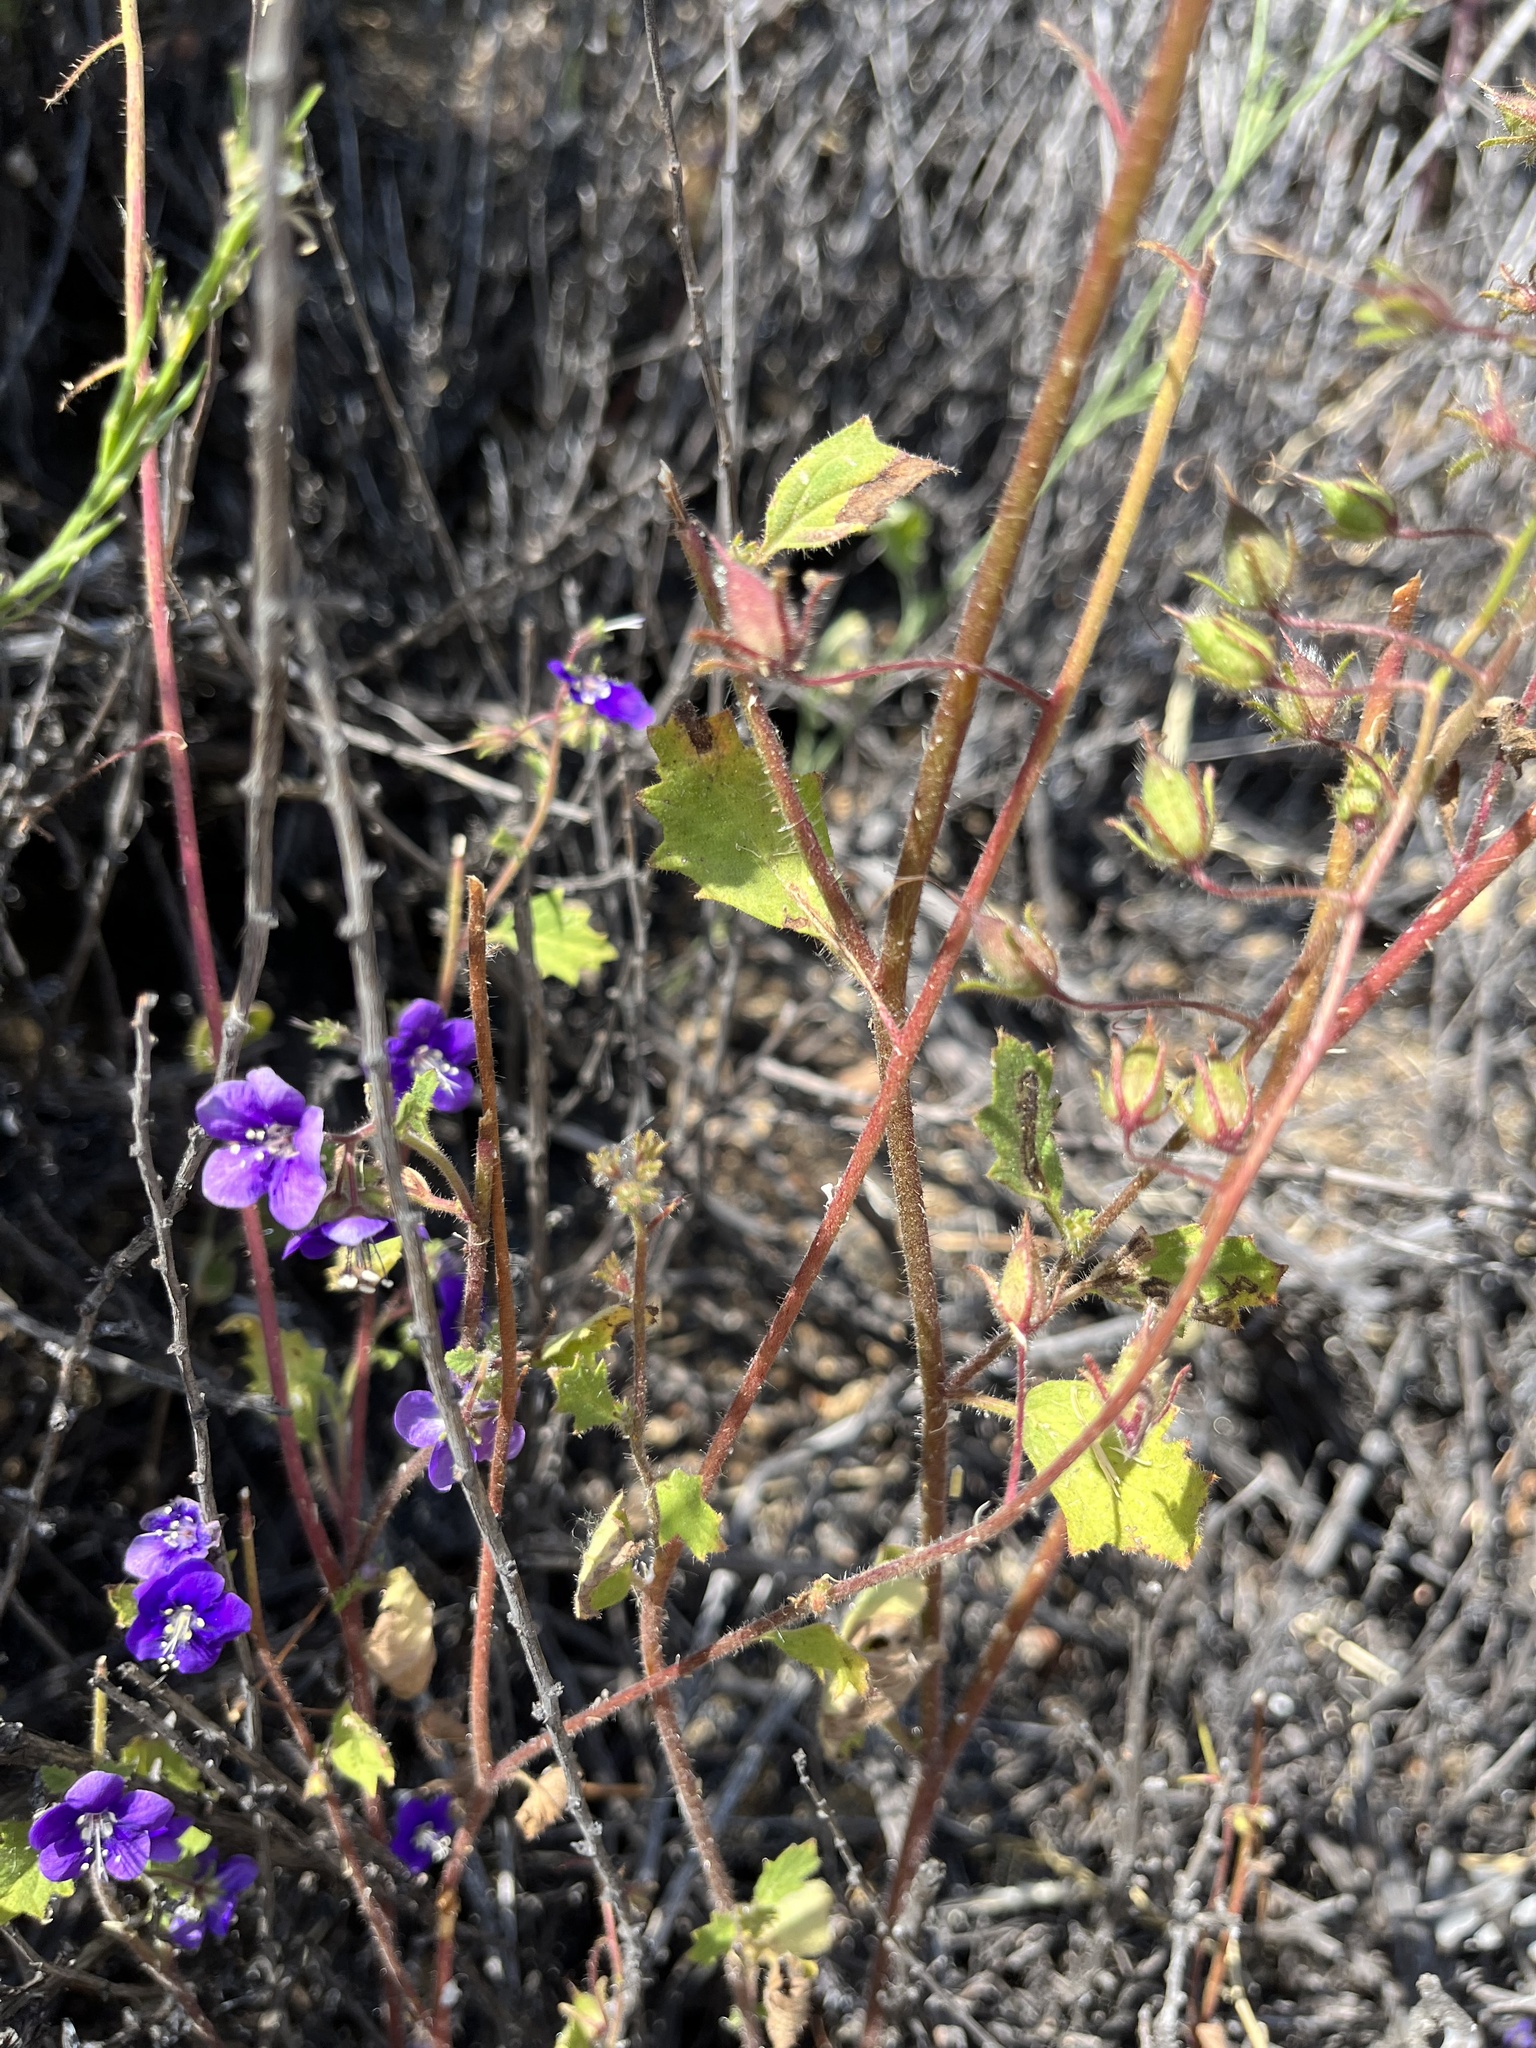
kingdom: Plantae
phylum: Tracheophyta
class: Magnoliopsida
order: Boraginales
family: Hydrophyllaceae
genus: Phacelia
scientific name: Phacelia parryi
